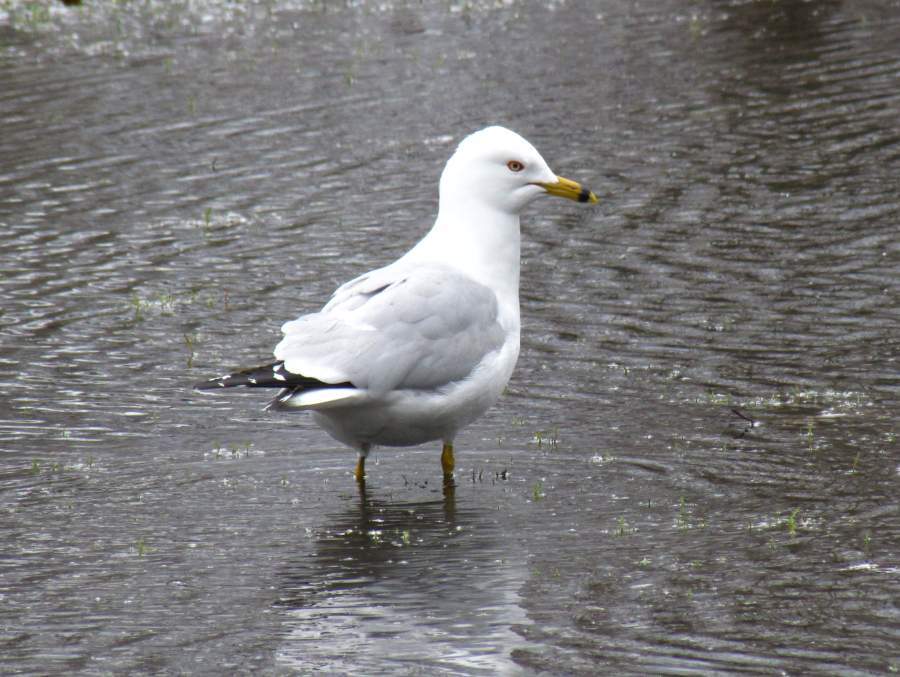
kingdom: Animalia
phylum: Chordata
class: Aves
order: Charadriiformes
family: Laridae
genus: Larus
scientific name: Larus delawarensis
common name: Ring-billed gull
